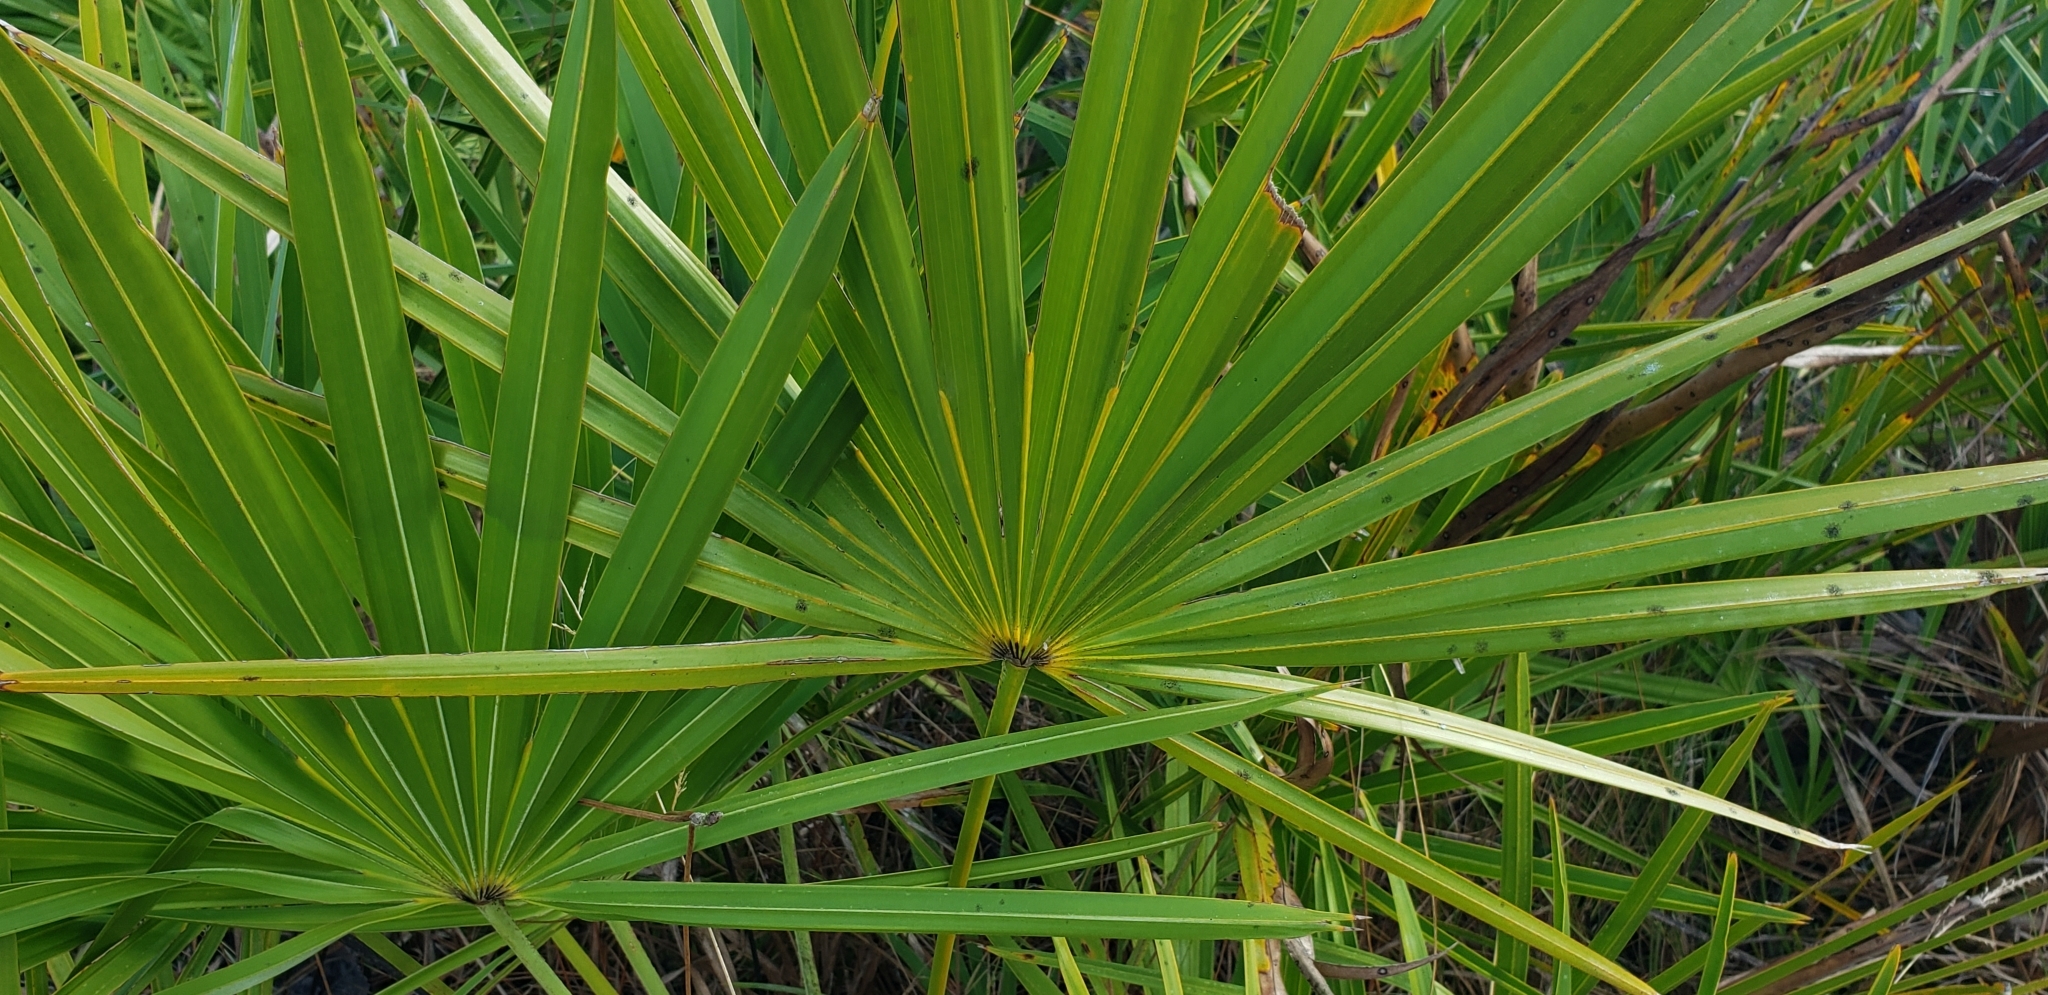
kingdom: Plantae
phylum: Tracheophyta
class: Liliopsida
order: Arecales
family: Arecaceae
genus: Serenoa
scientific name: Serenoa repens
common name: Saw-palmetto
